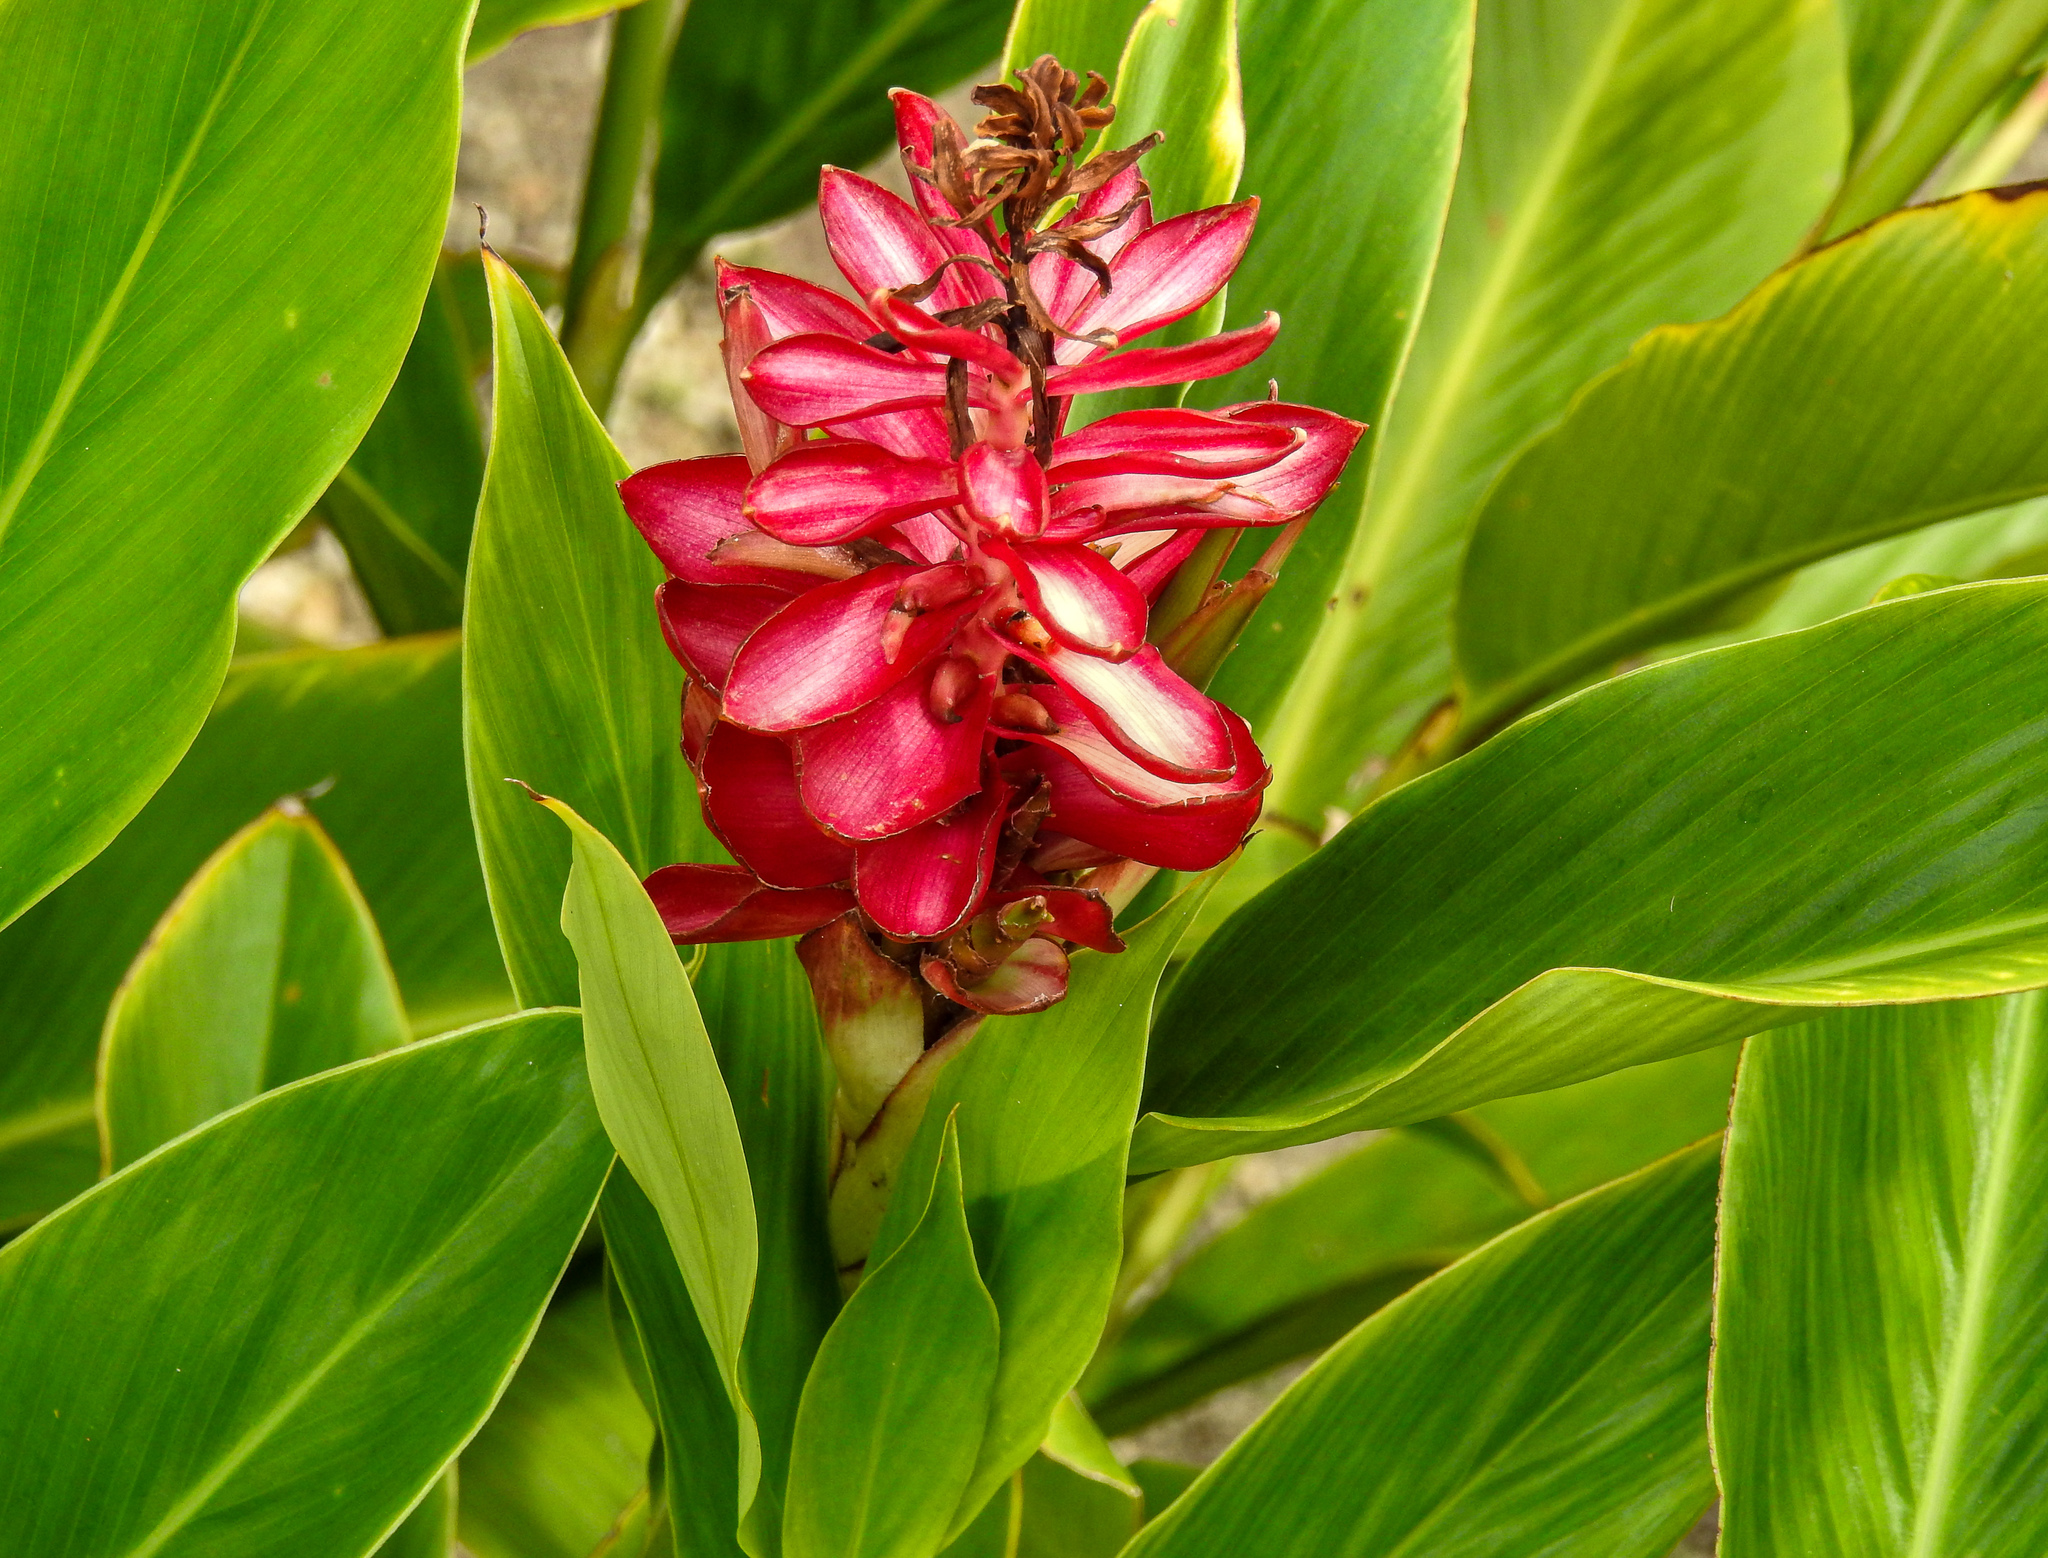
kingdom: Plantae
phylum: Tracheophyta
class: Liliopsida
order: Zingiberales
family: Zingiberaceae
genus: Alpinia
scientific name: Alpinia purpurata
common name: Red ginger
